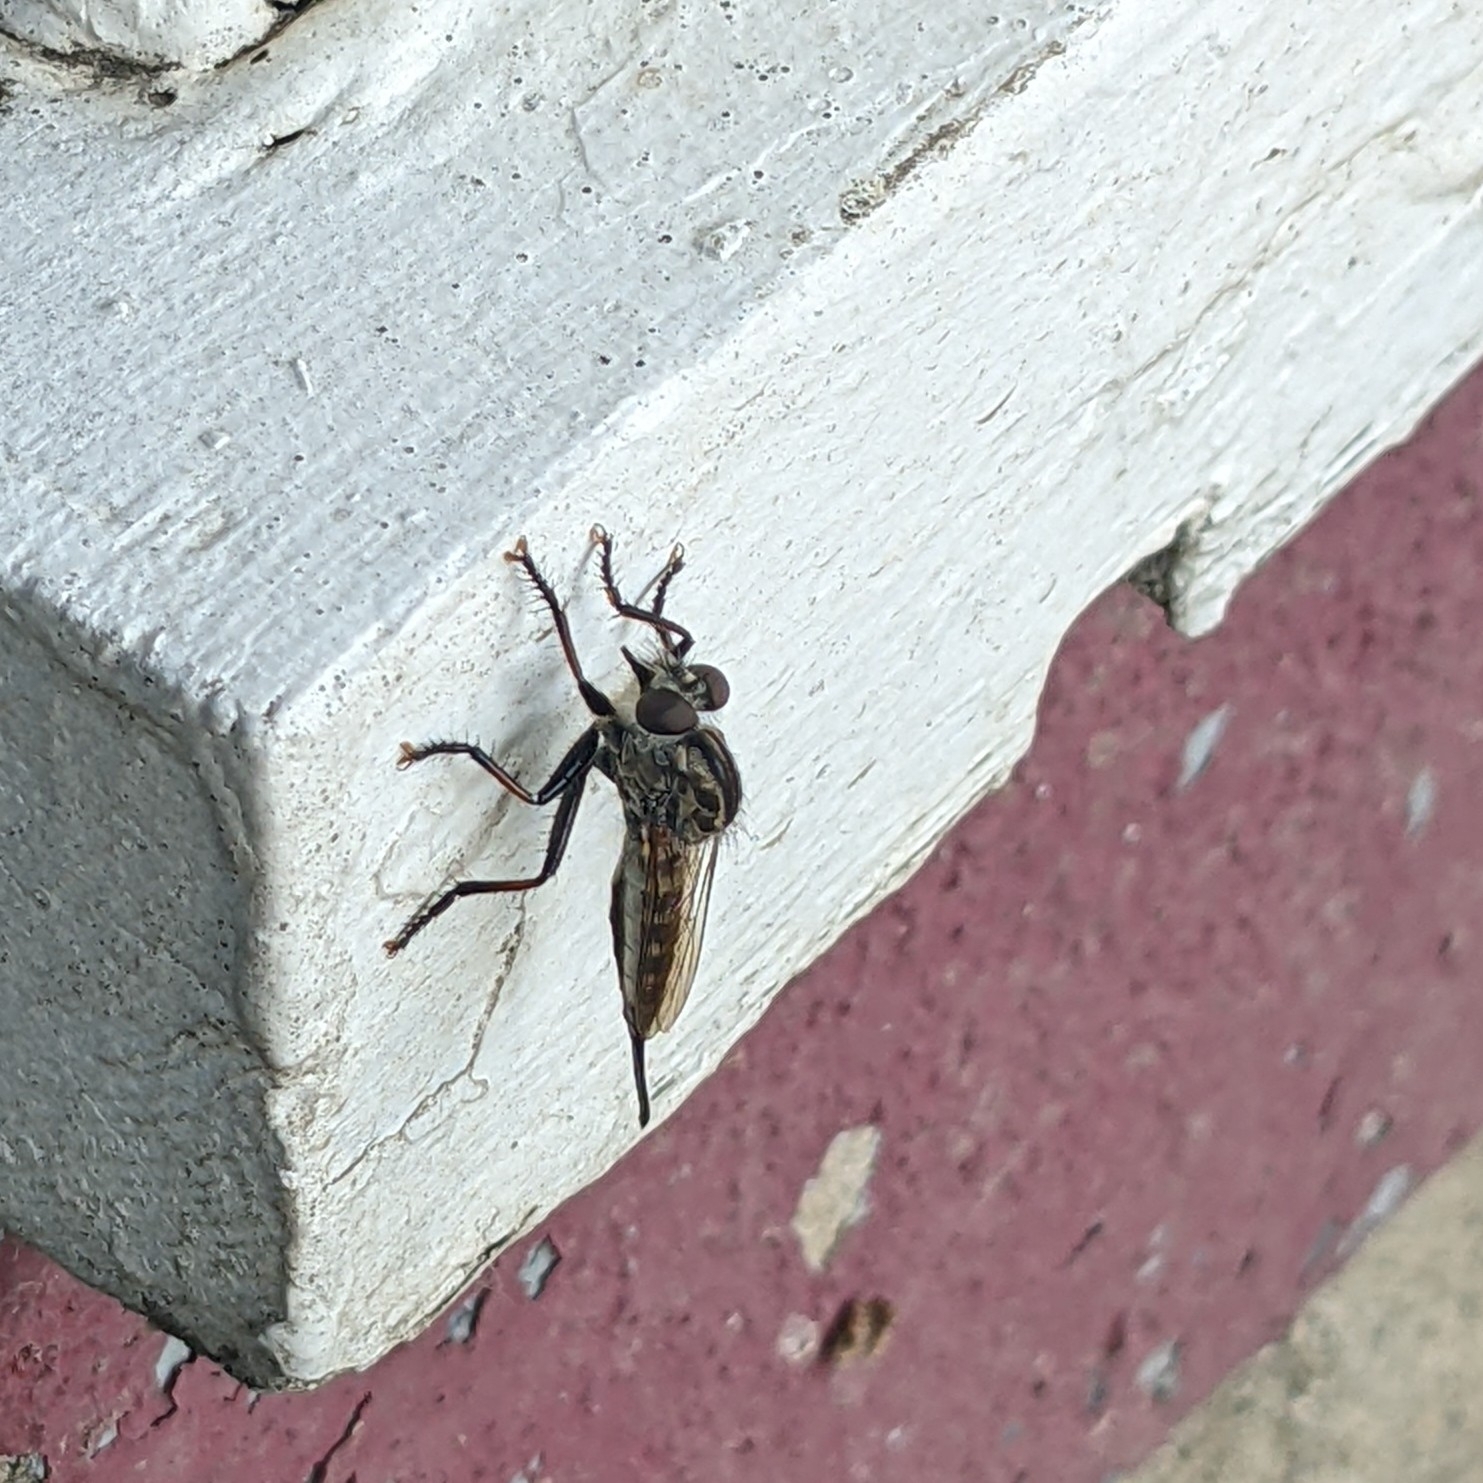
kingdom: Animalia
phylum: Arthropoda
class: Insecta
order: Diptera
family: Asilidae
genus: Efferia
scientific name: Efferia aestuans
